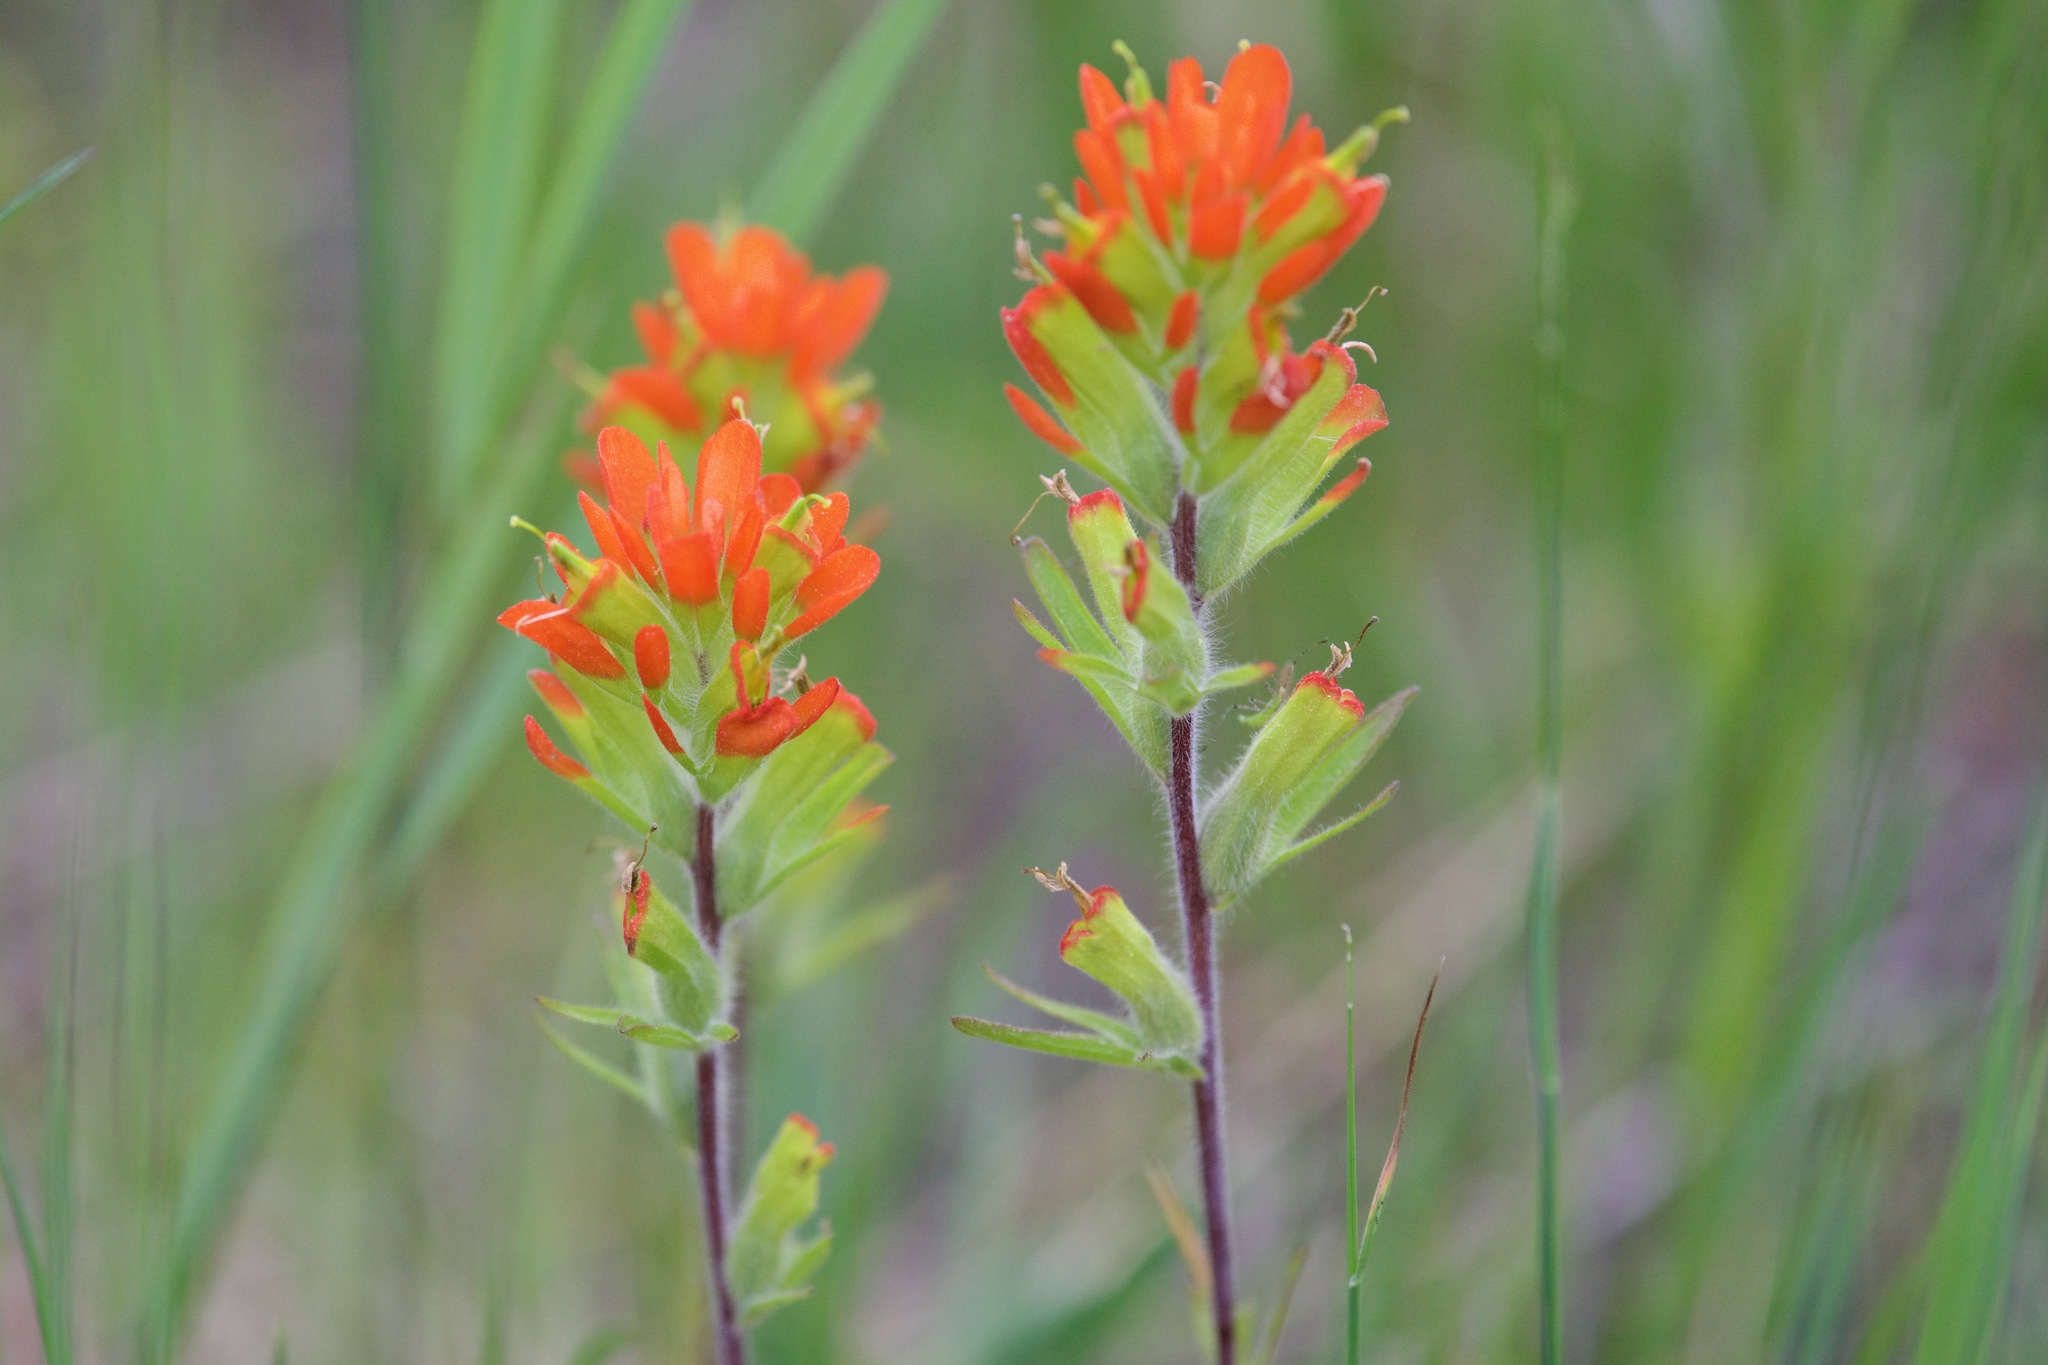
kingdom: Plantae
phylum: Tracheophyta
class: Magnoliopsida
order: Lamiales
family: Orobanchaceae
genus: Castilleja
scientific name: Castilleja coccinea
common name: Scarlet paintbrush
